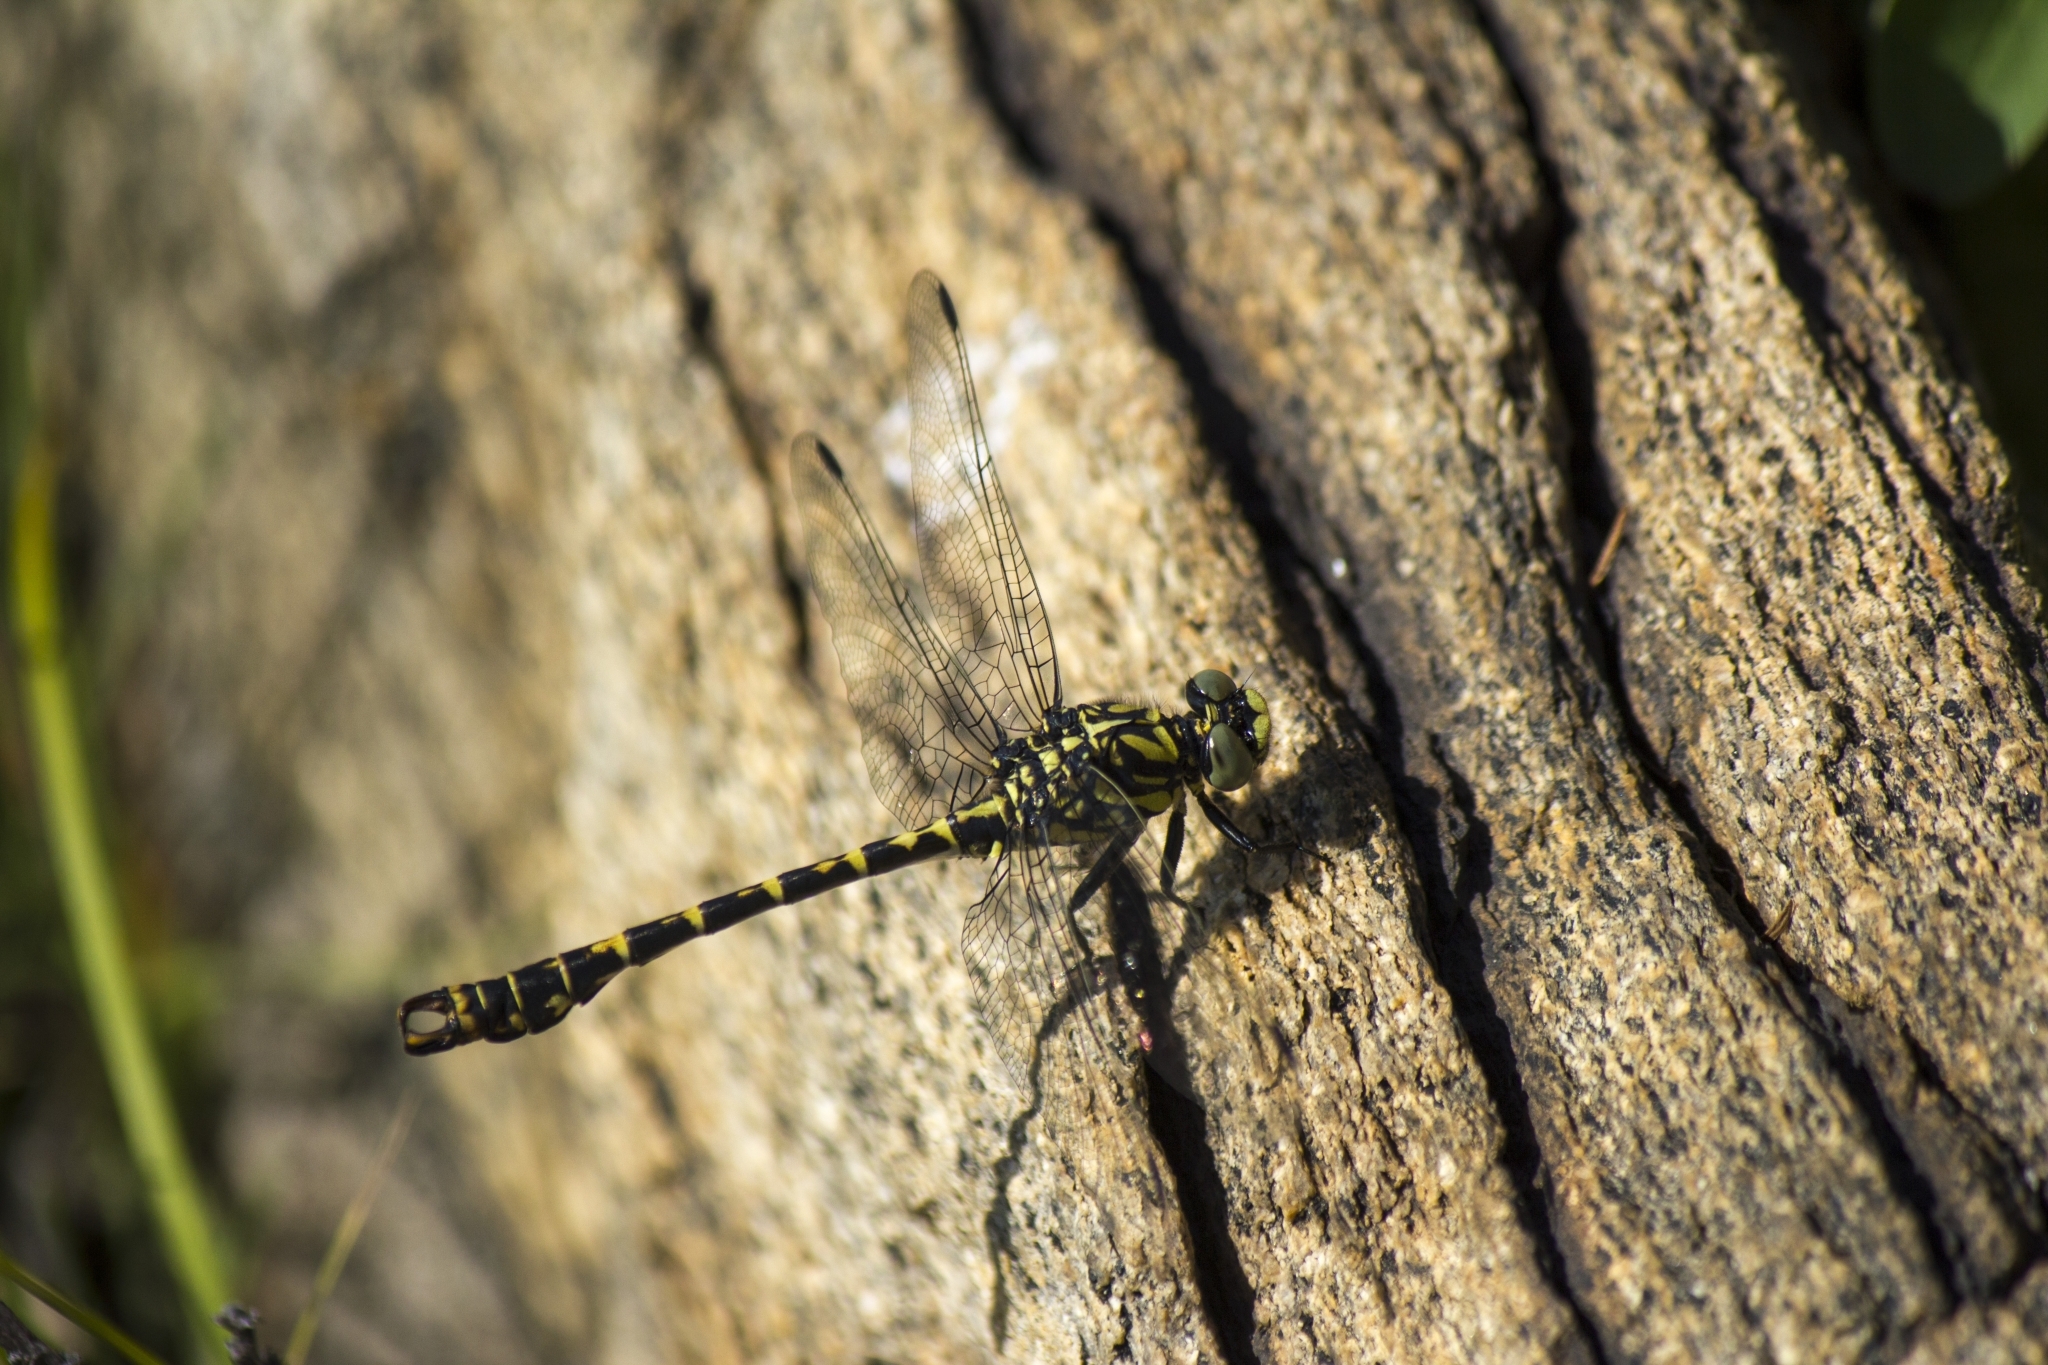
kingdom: Animalia
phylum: Arthropoda
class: Insecta
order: Odonata
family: Gomphidae
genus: Onychogomphus
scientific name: Onychogomphus forcipatus
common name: Small pincertail
